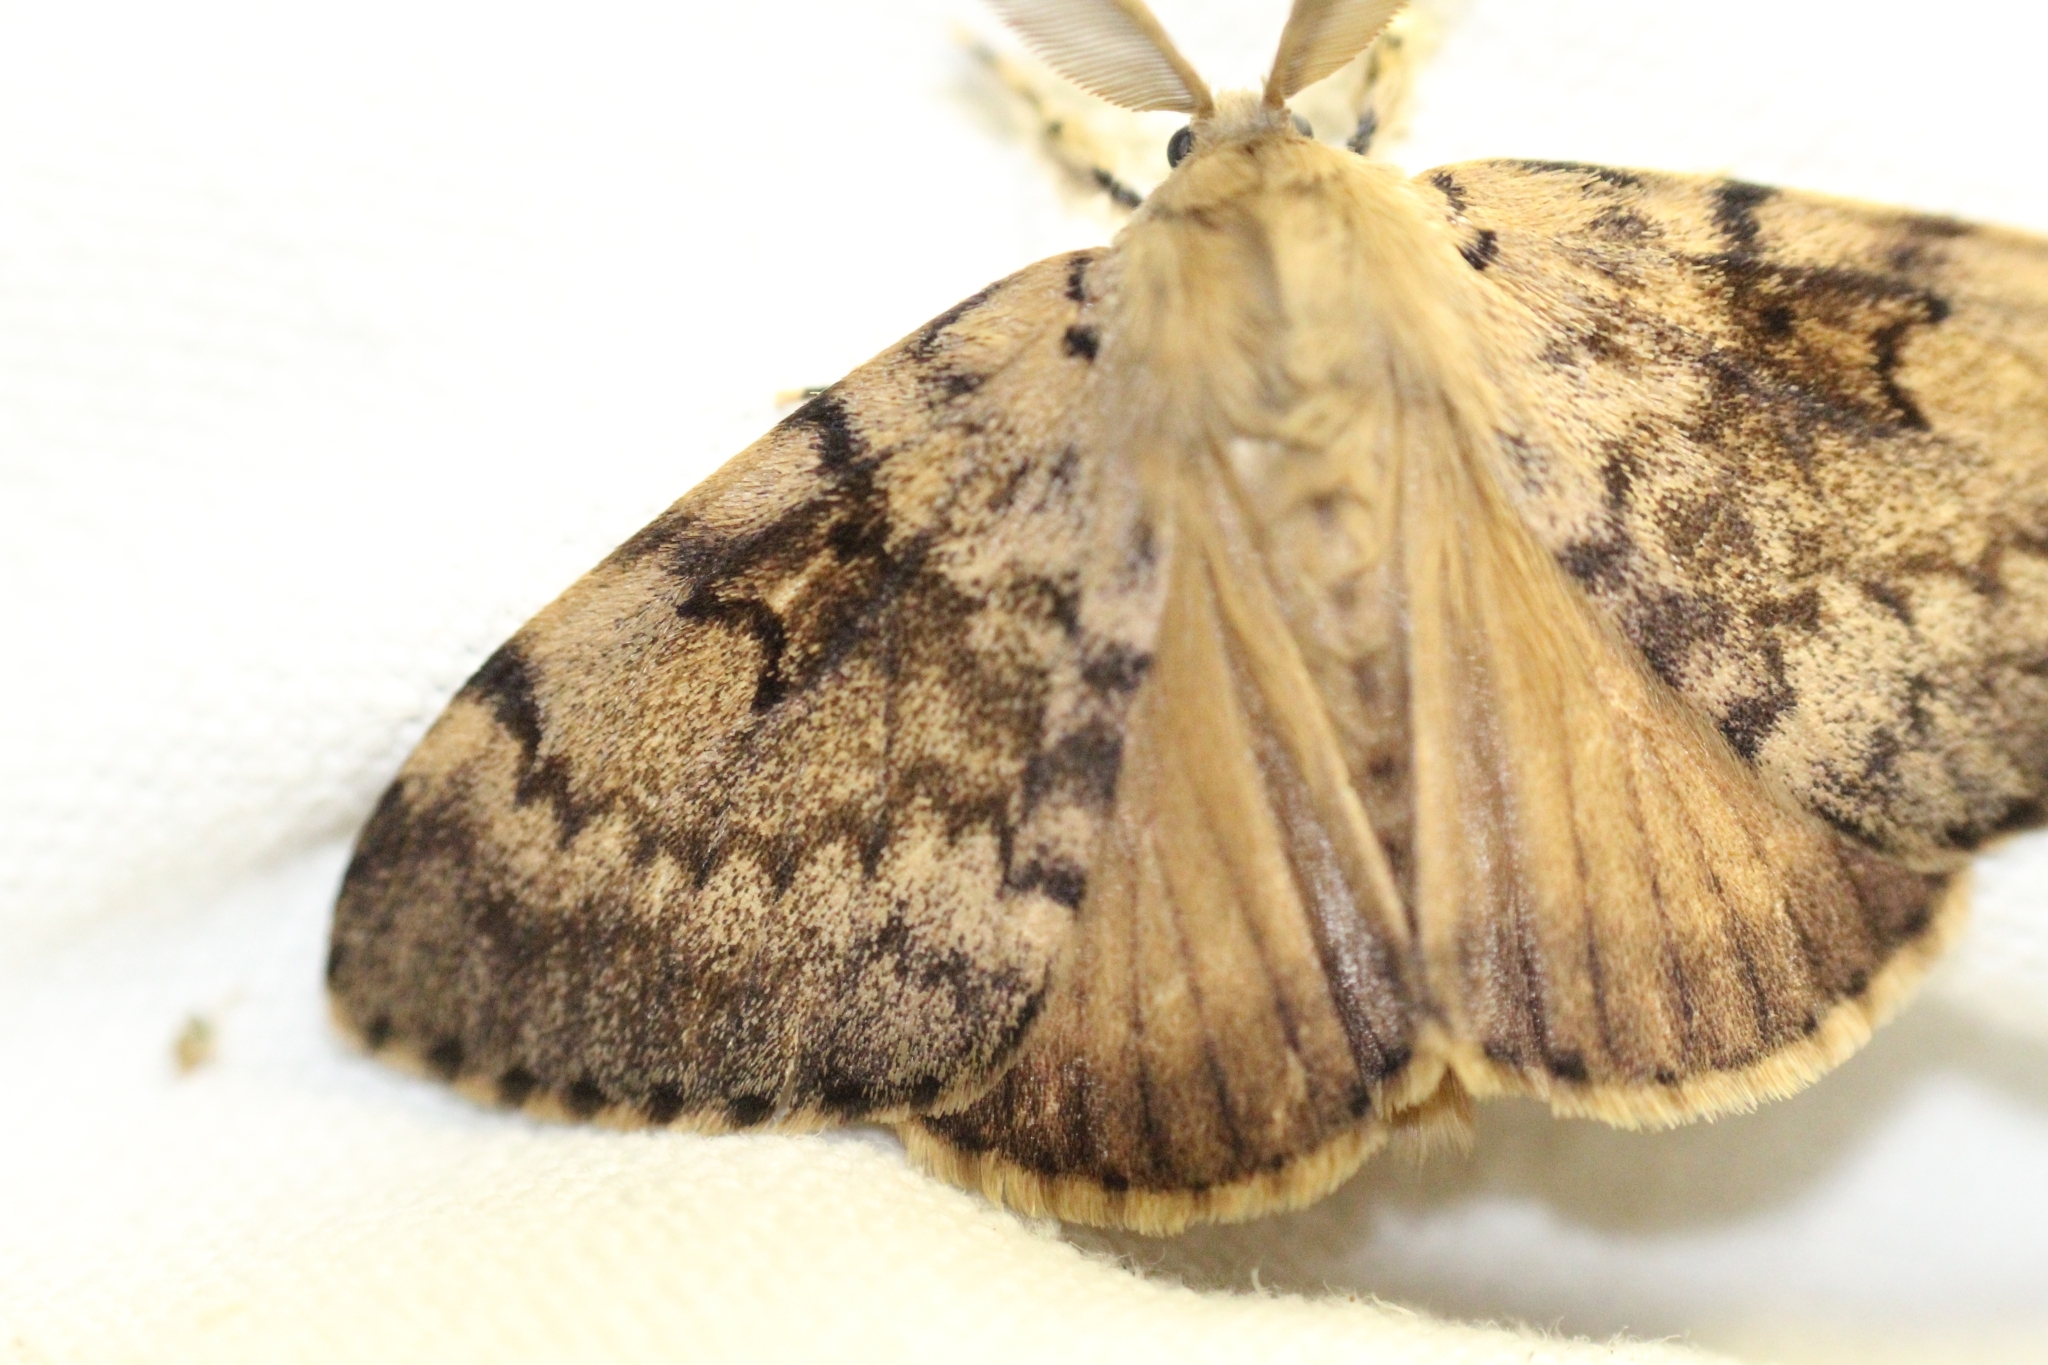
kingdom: Animalia
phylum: Arthropoda
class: Insecta
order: Lepidoptera
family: Erebidae
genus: Lymantria
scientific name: Lymantria dispar
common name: Gypsy moth
